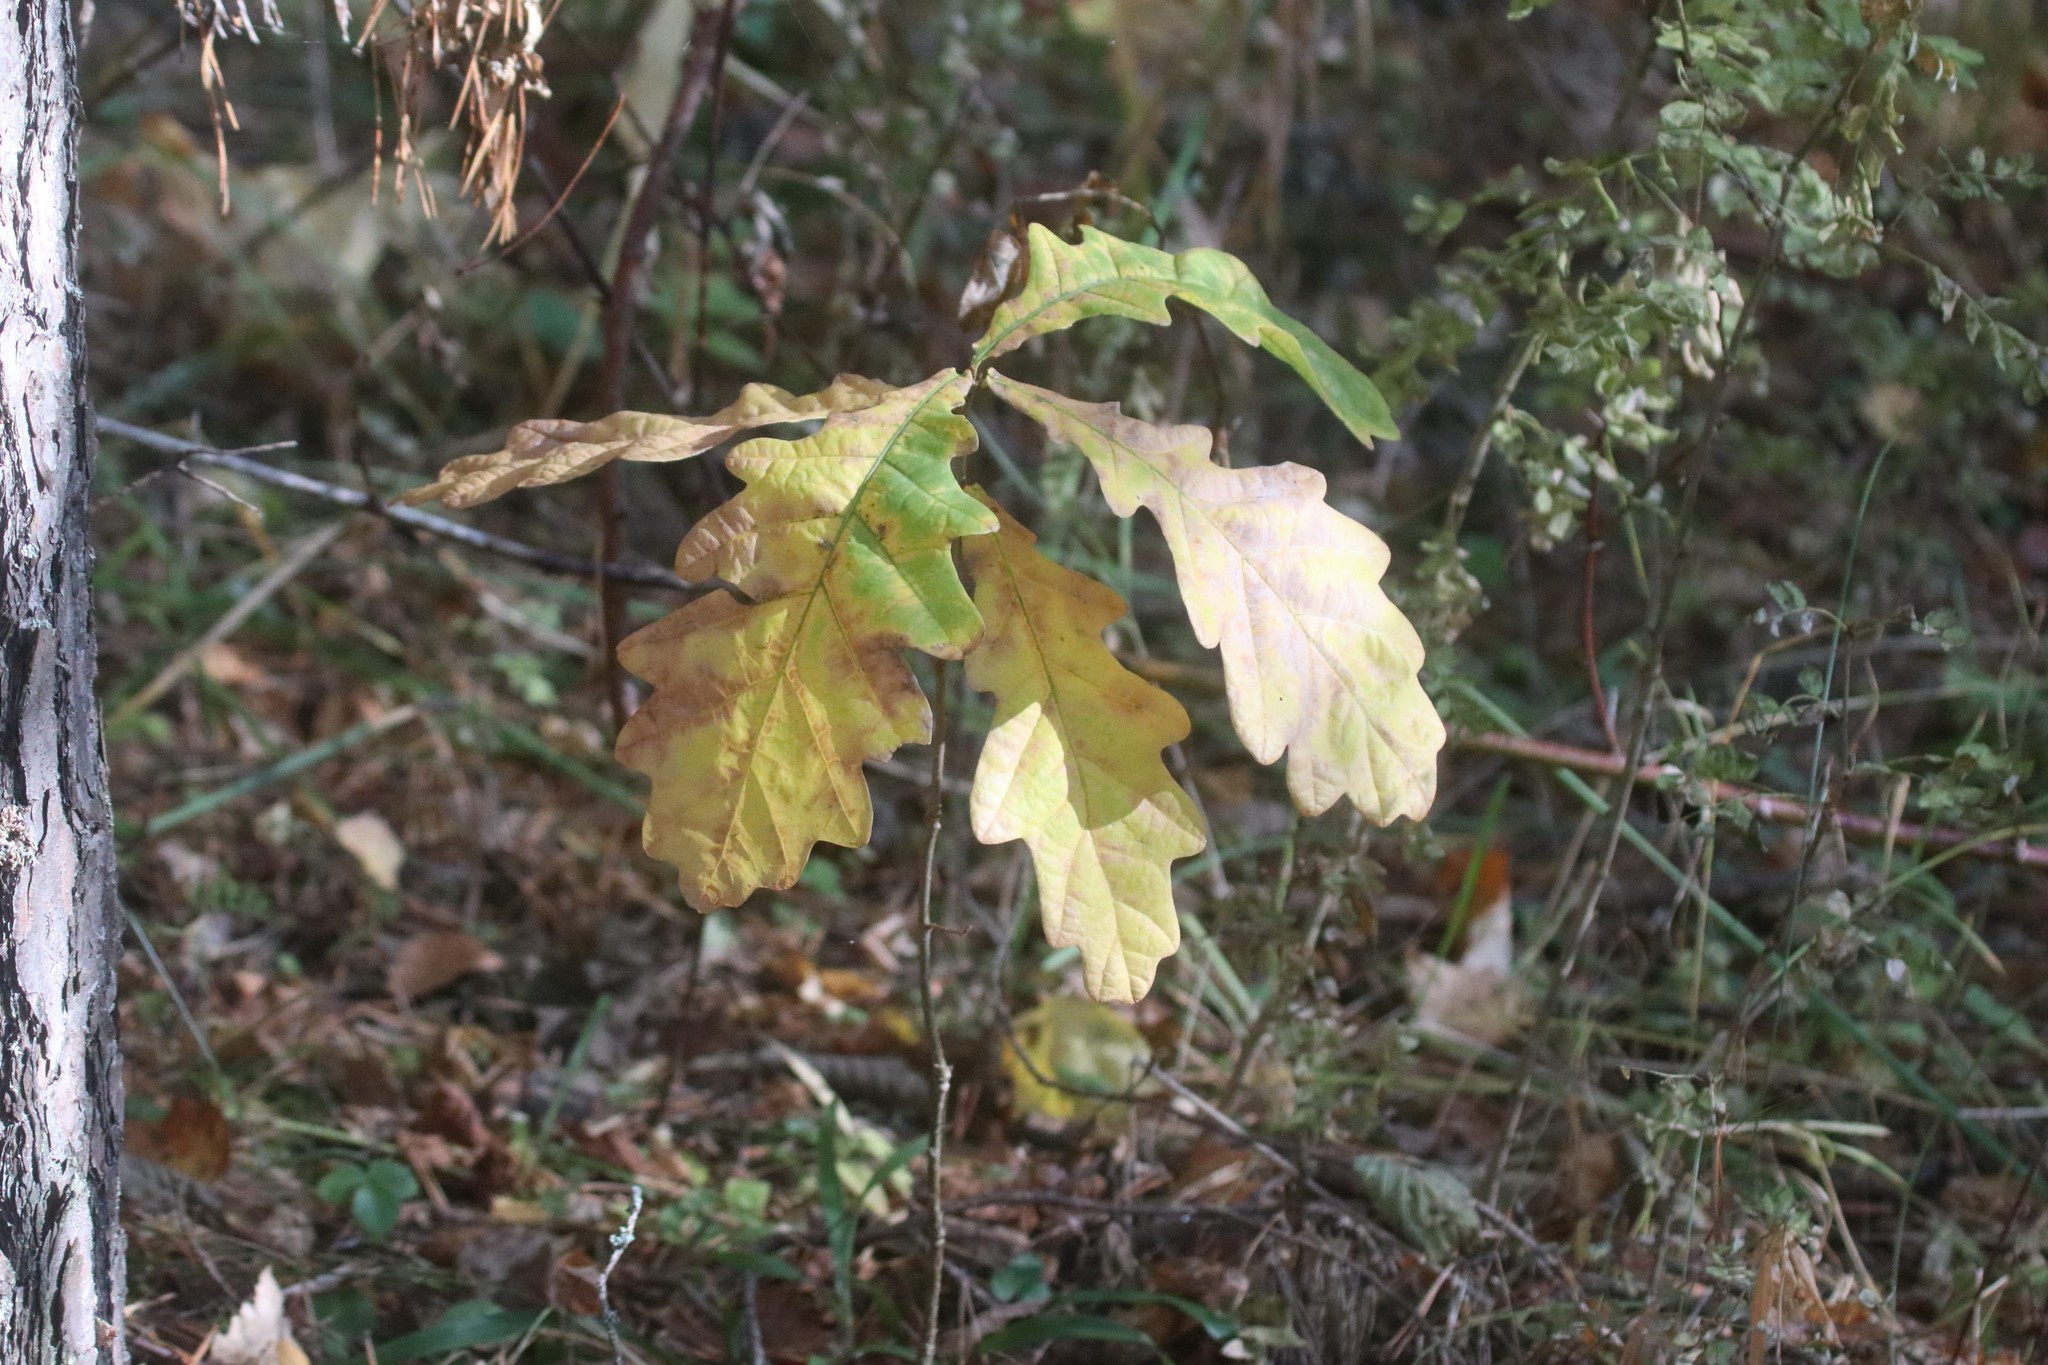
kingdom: Plantae
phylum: Tracheophyta
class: Magnoliopsida
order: Fagales
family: Fagaceae
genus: Quercus
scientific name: Quercus robur
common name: Pedunculate oak
